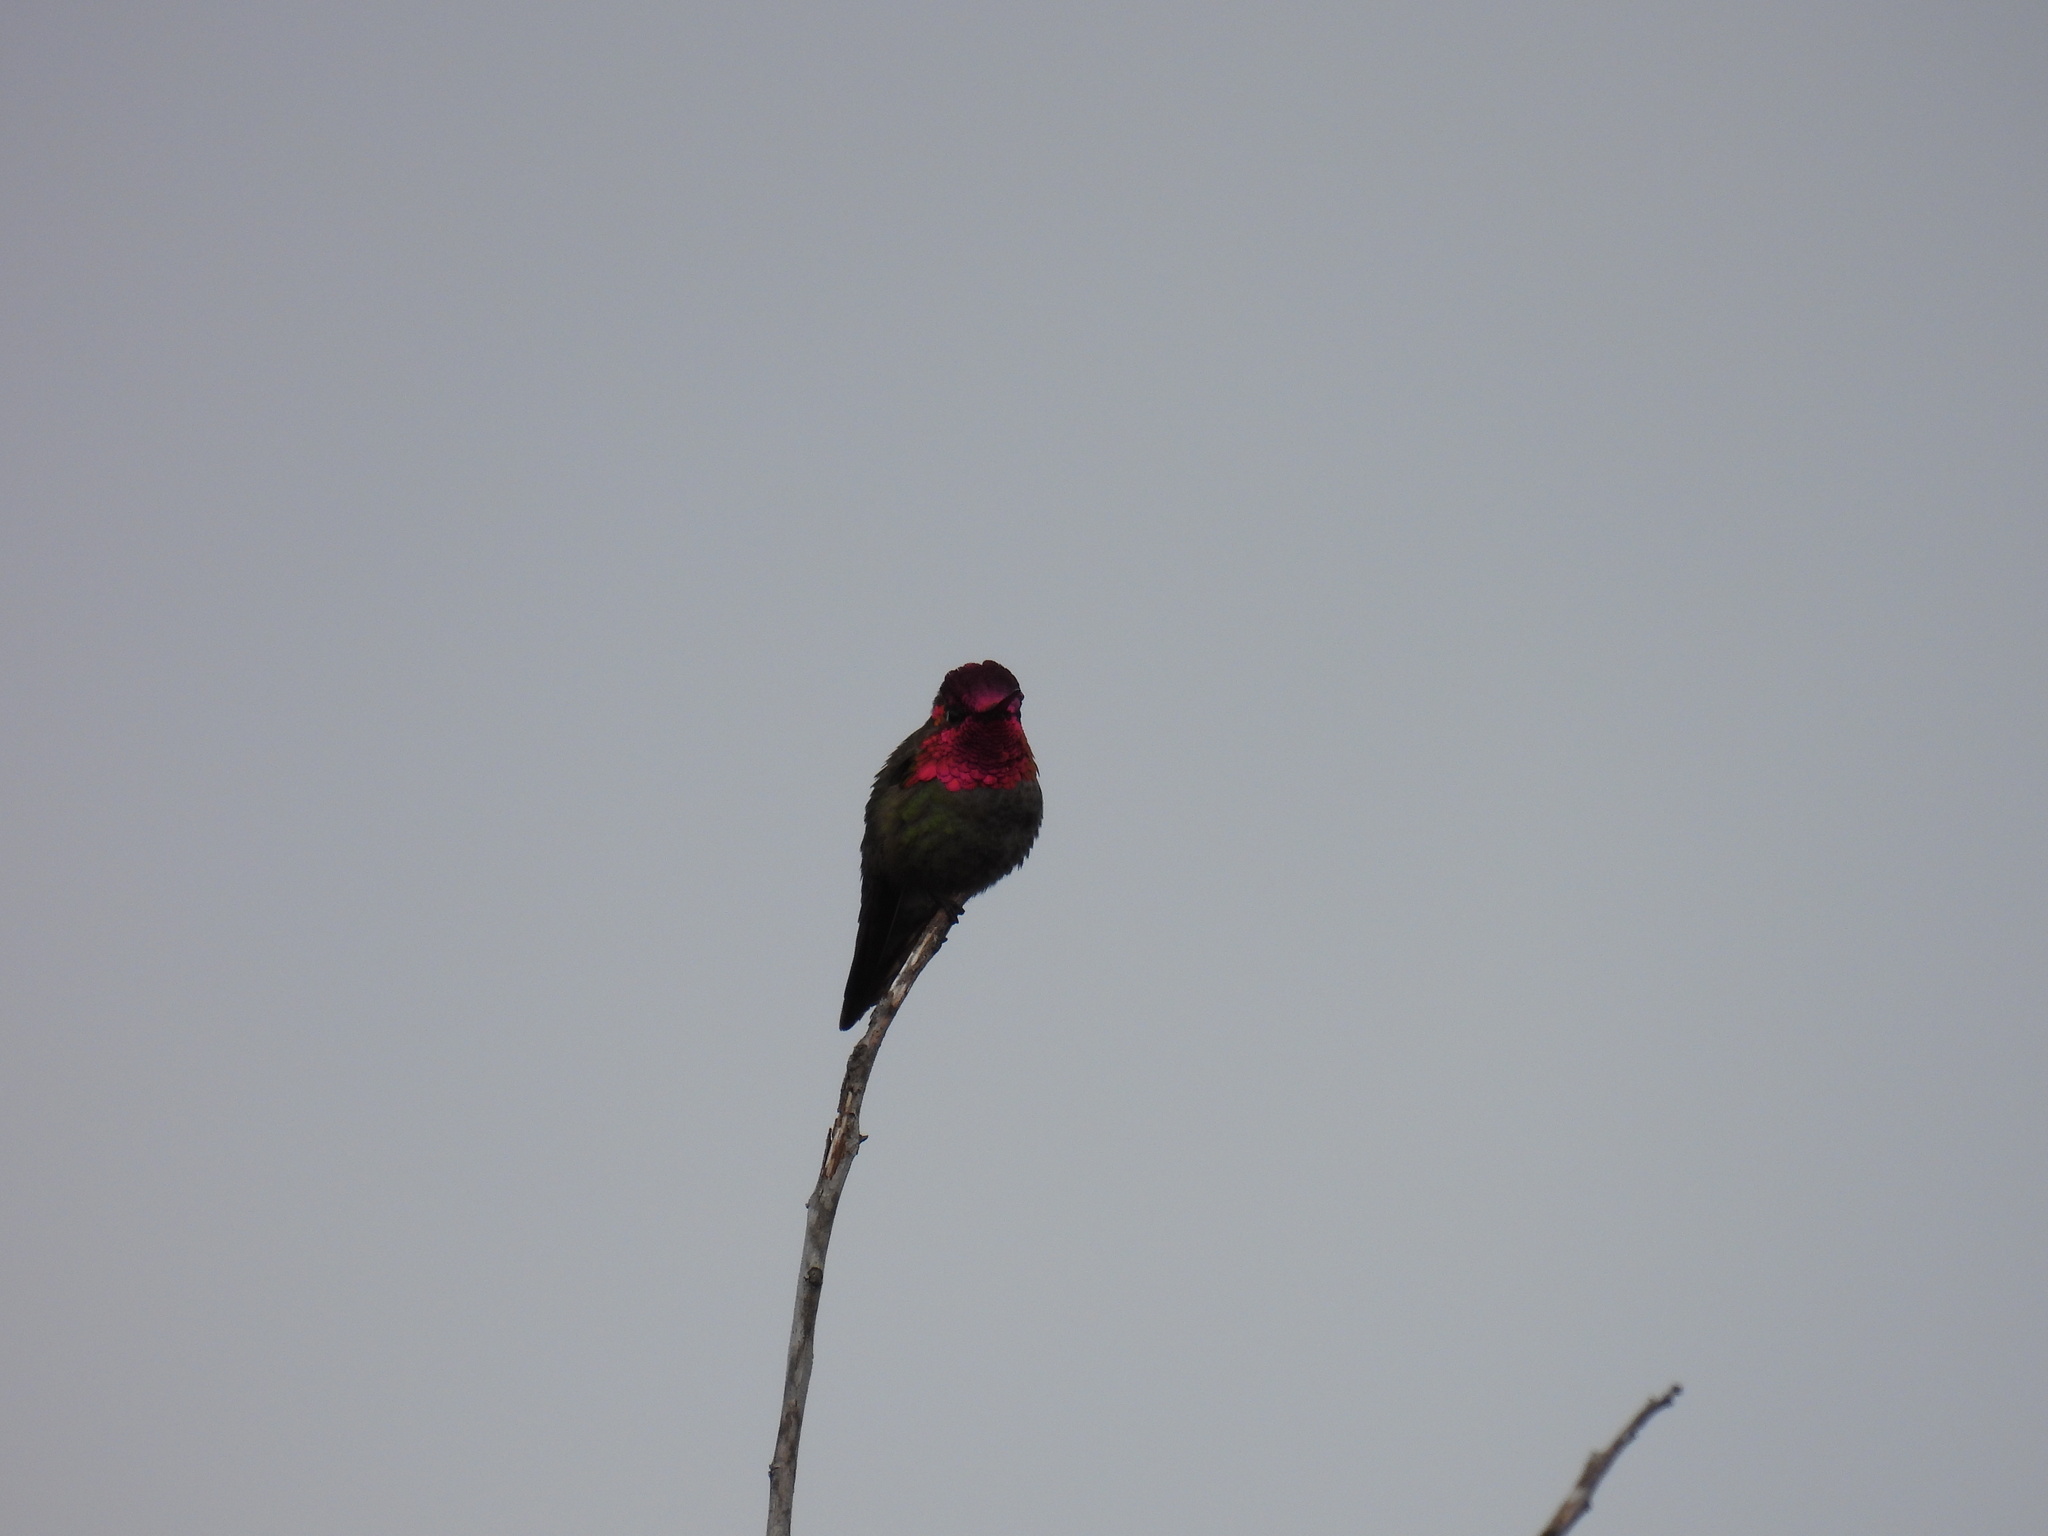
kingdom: Animalia
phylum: Chordata
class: Aves
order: Apodiformes
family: Trochilidae
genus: Calypte
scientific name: Calypte anna
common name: Anna's hummingbird
